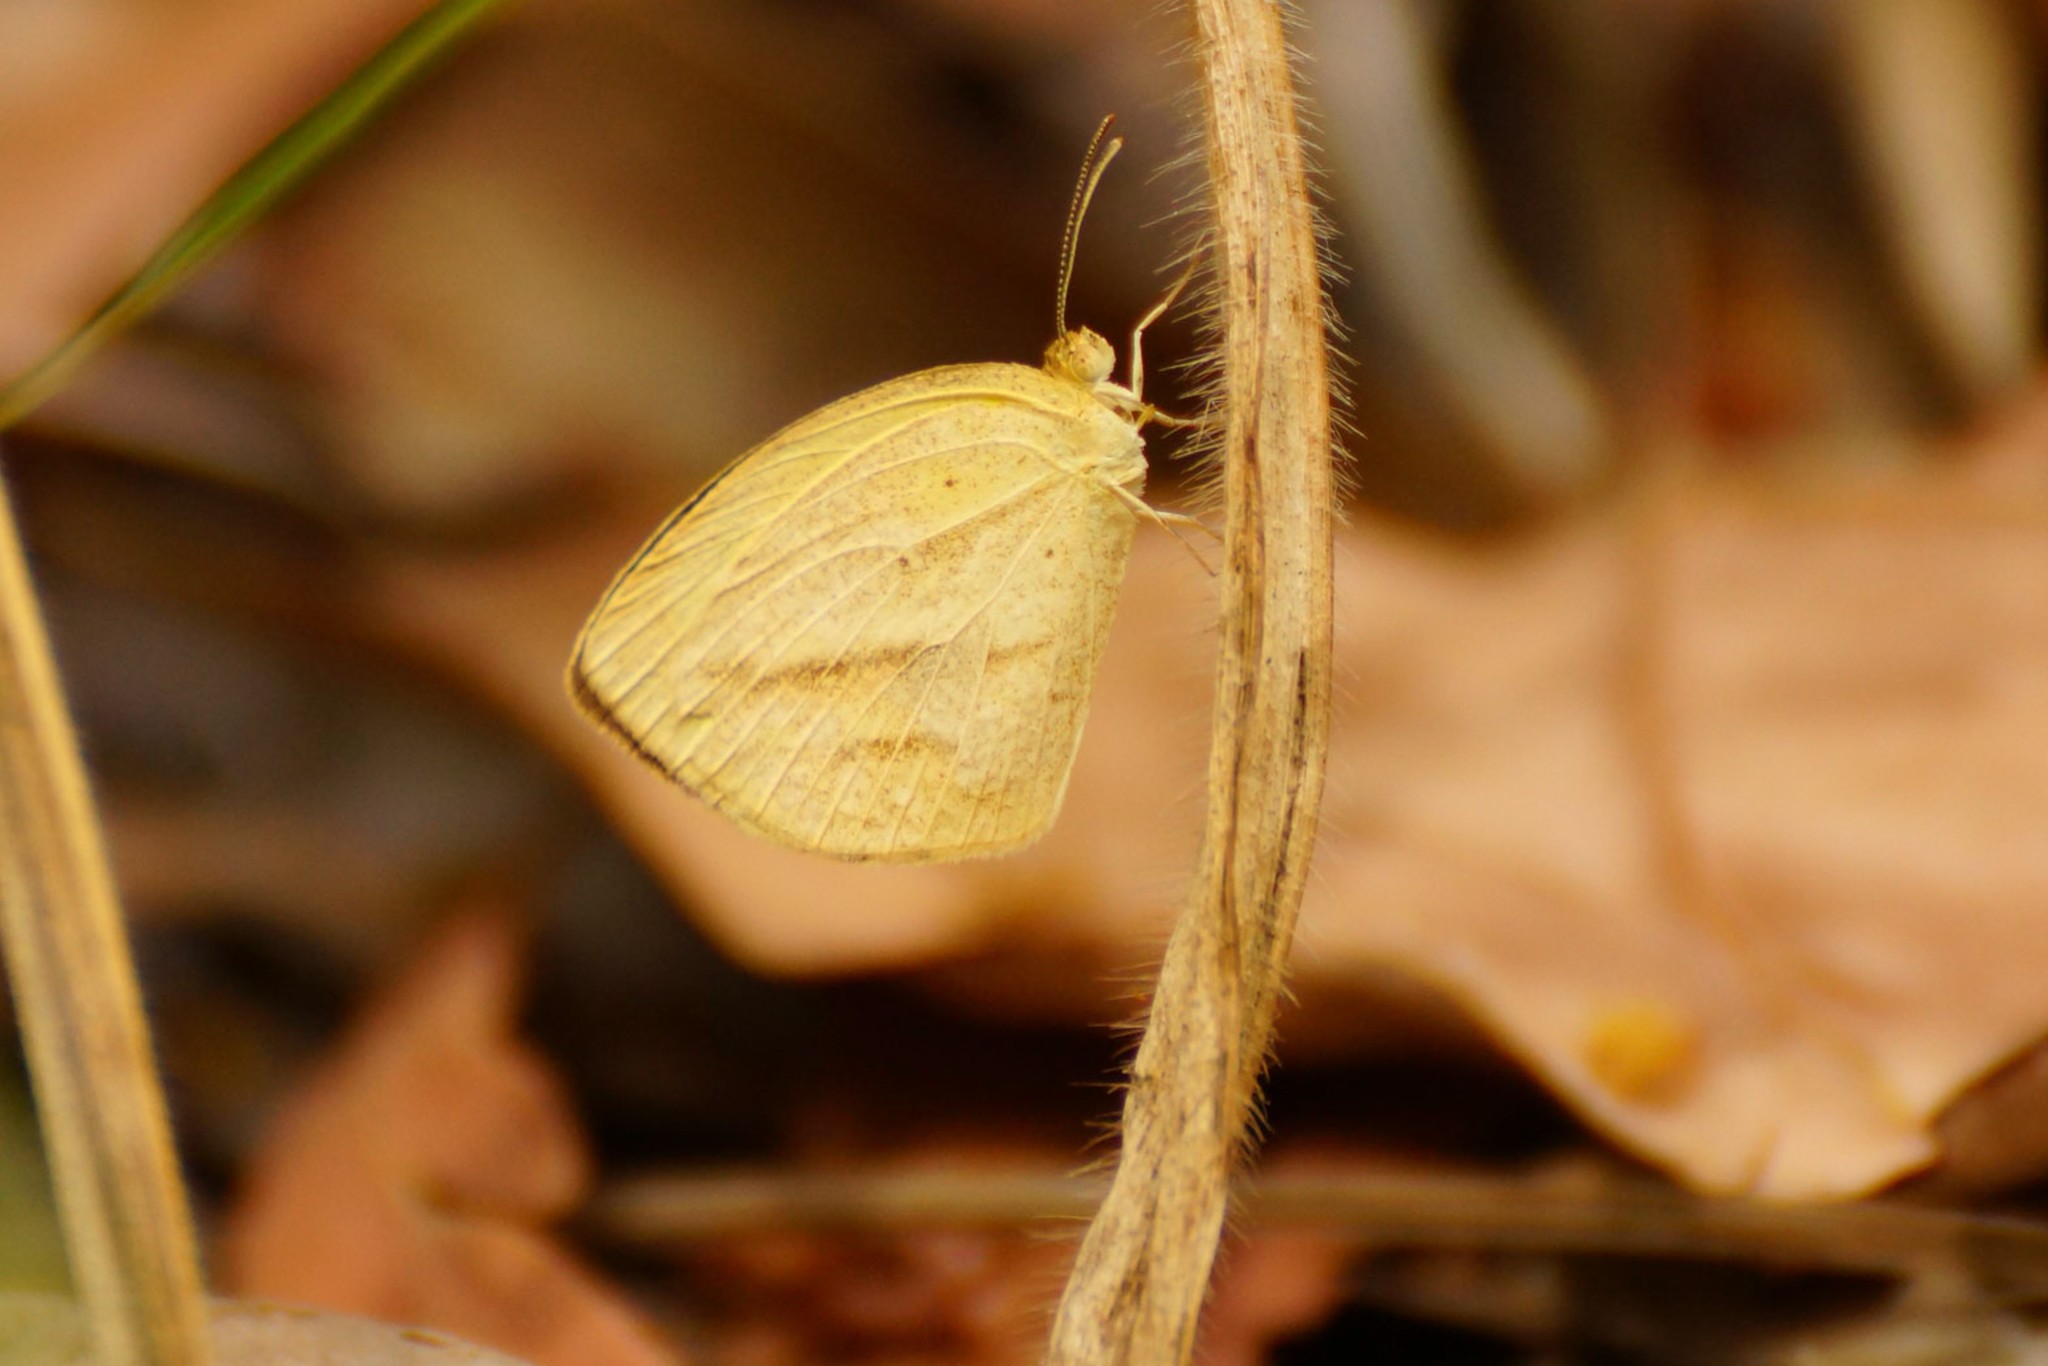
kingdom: Animalia
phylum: Arthropoda
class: Insecta
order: Lepidoptera
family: Pieridae
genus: Eurema
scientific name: Eurema laeta
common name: Spotless grass yellow
